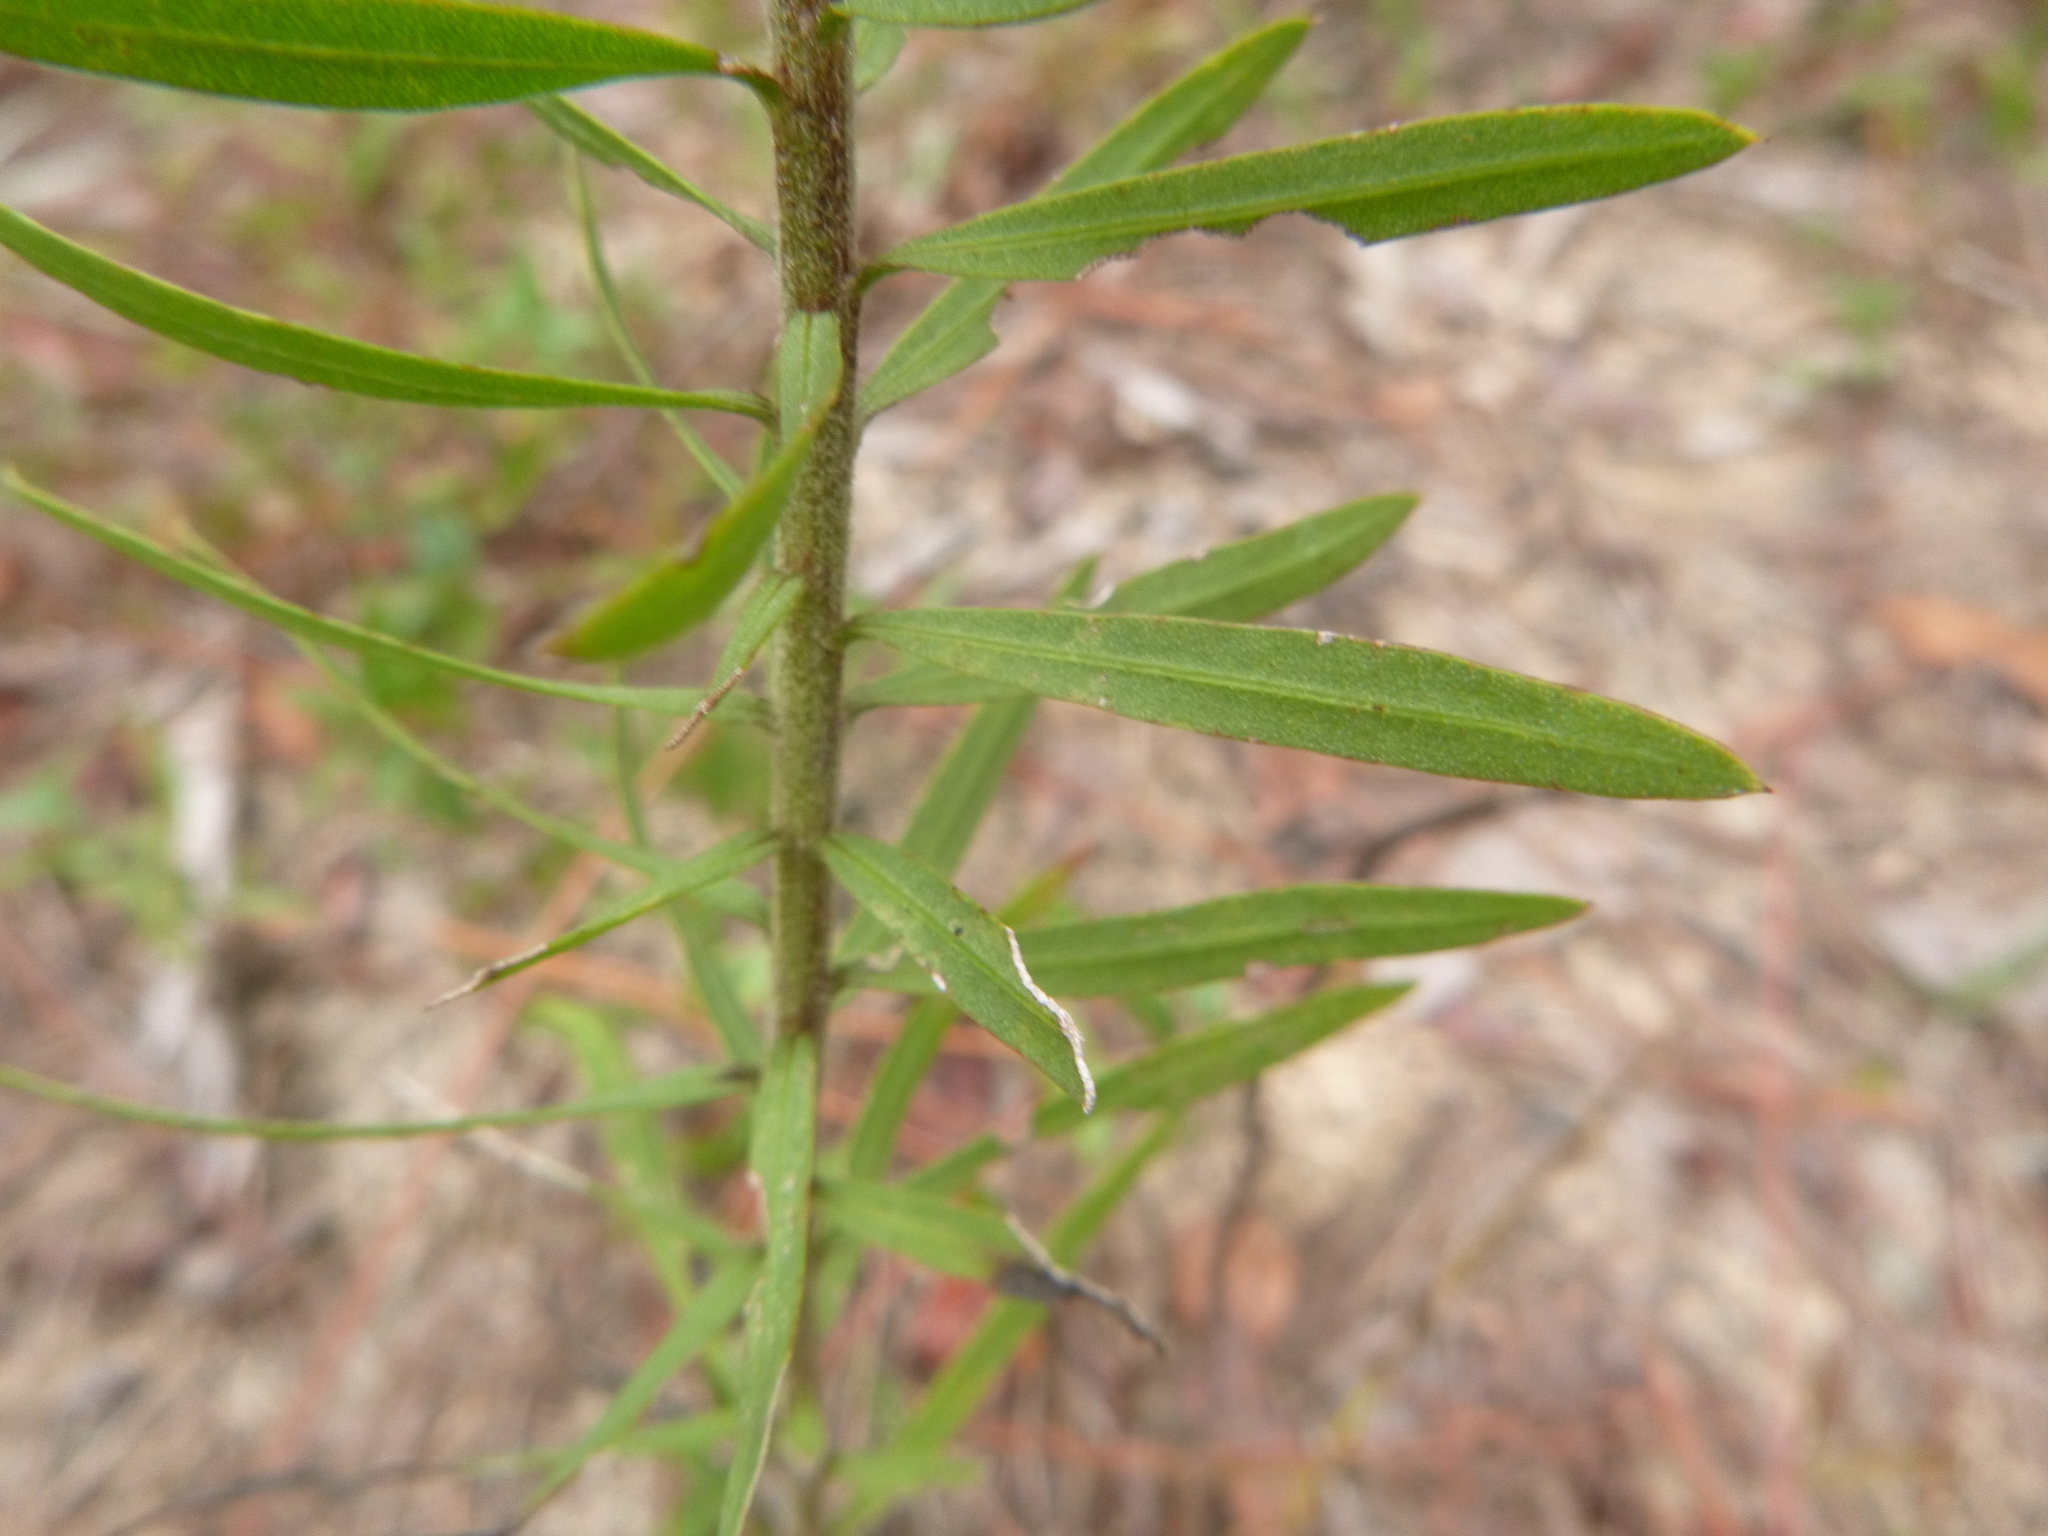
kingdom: Plantae
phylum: Tracheophyta
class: Magnoliopsida
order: Asterales
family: Asteraceae
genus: Liatris
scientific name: Liatris elegans
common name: Pinkscale gayfeather
